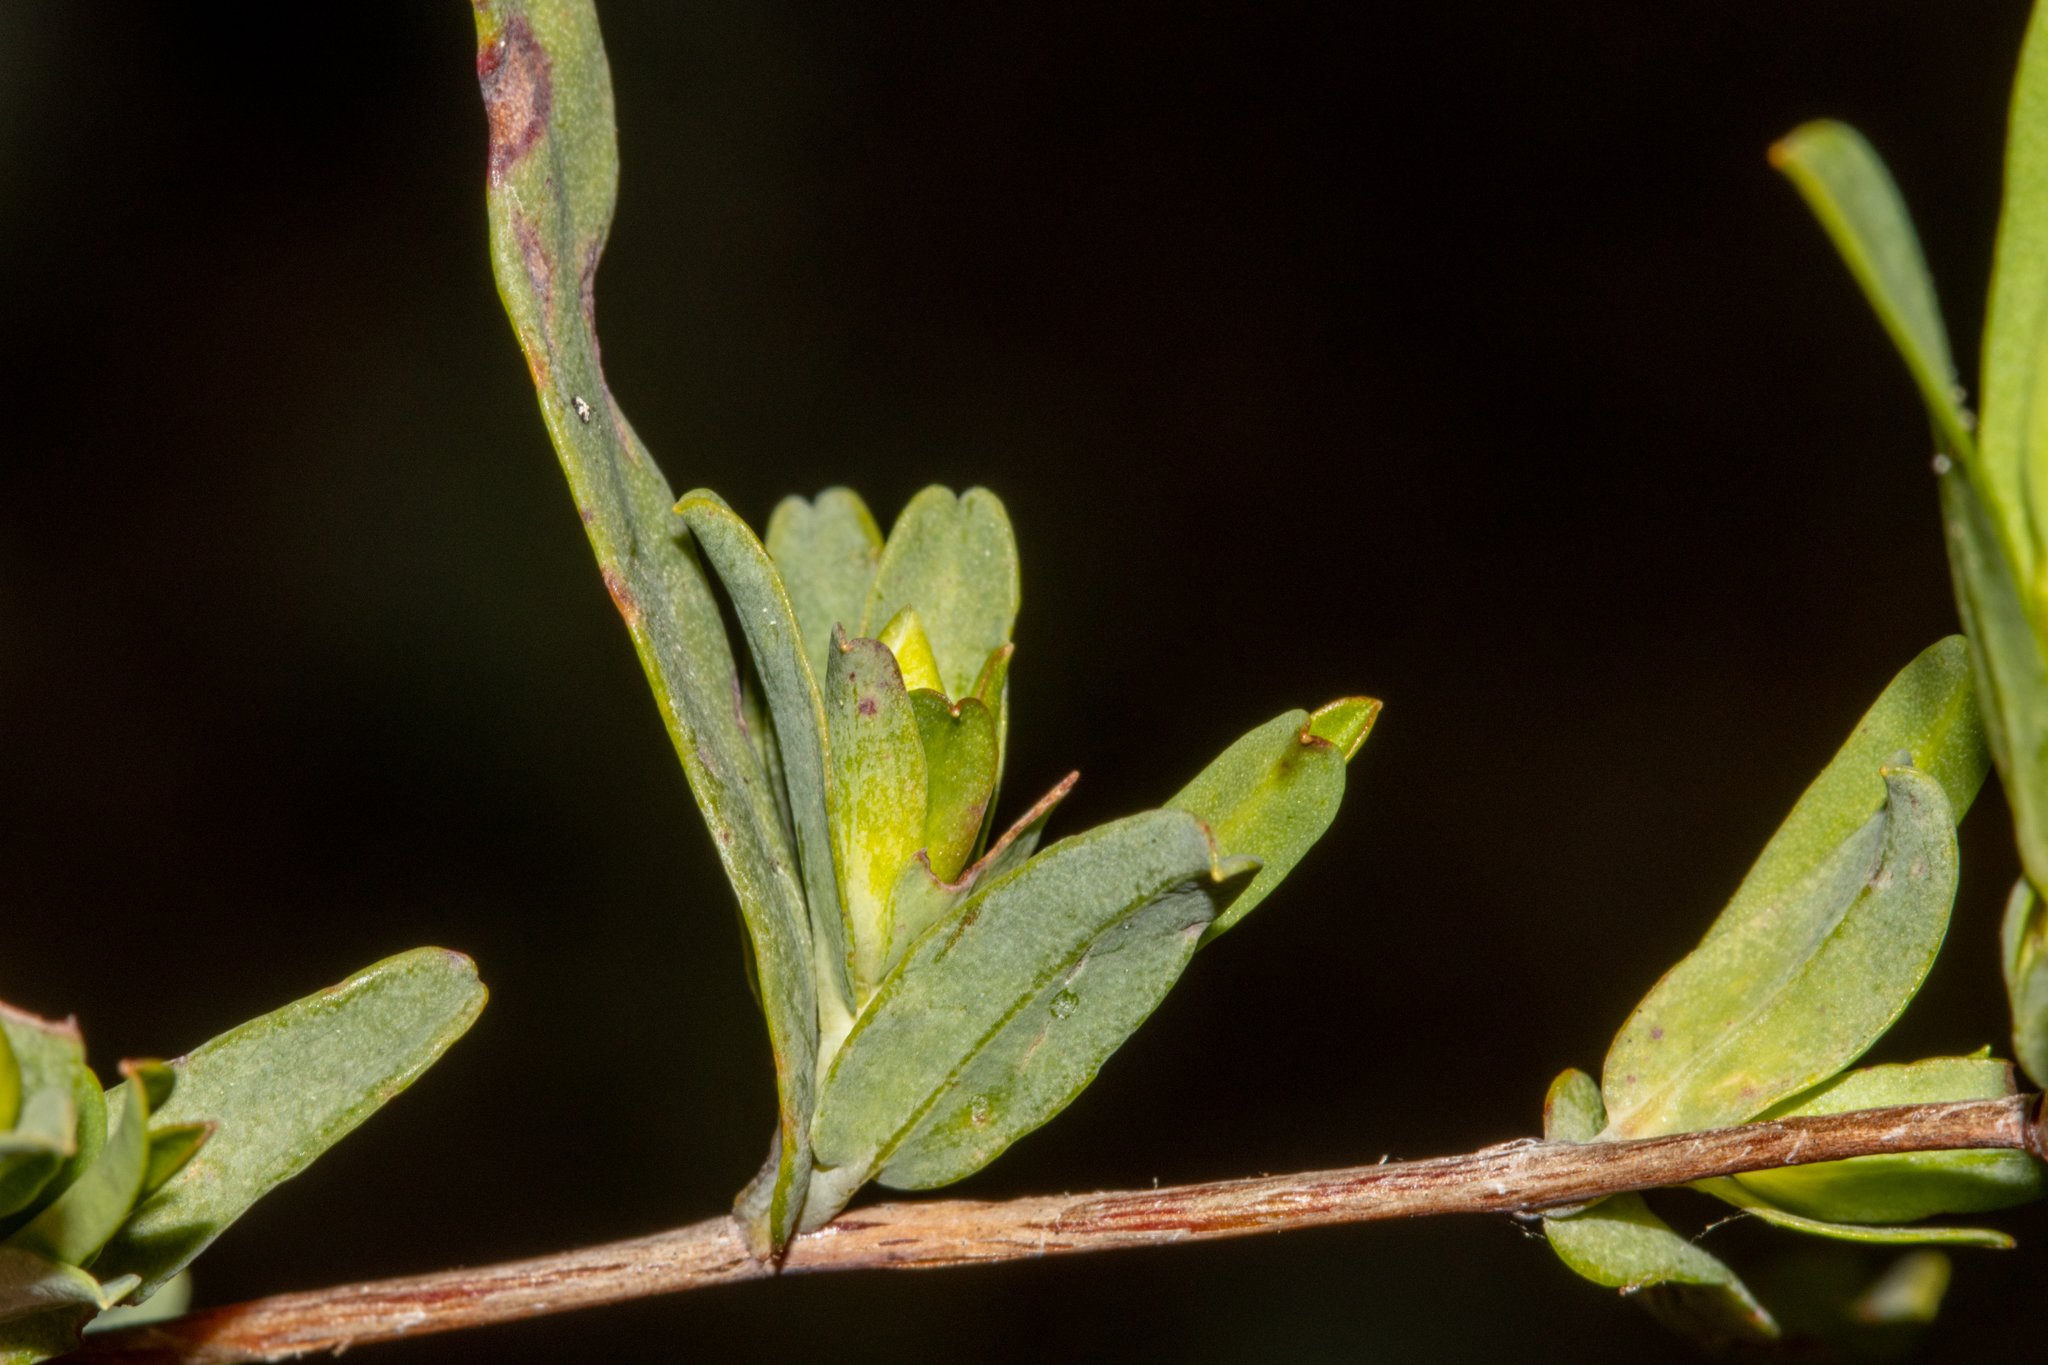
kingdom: Plantae
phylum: Tracheophyta
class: Magnoliopsida
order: Dilleniales
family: Dilleniaceae
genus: Hibbertia
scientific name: Hibbertia glomerata
